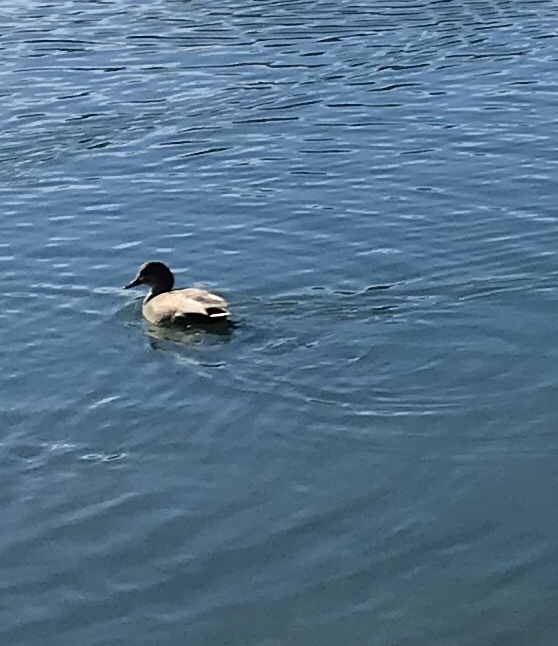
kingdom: Animalia
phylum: Chordata
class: Aves
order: Anseriformes
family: Anatidae
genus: Mareca
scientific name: Mareca americana
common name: American wigeon
